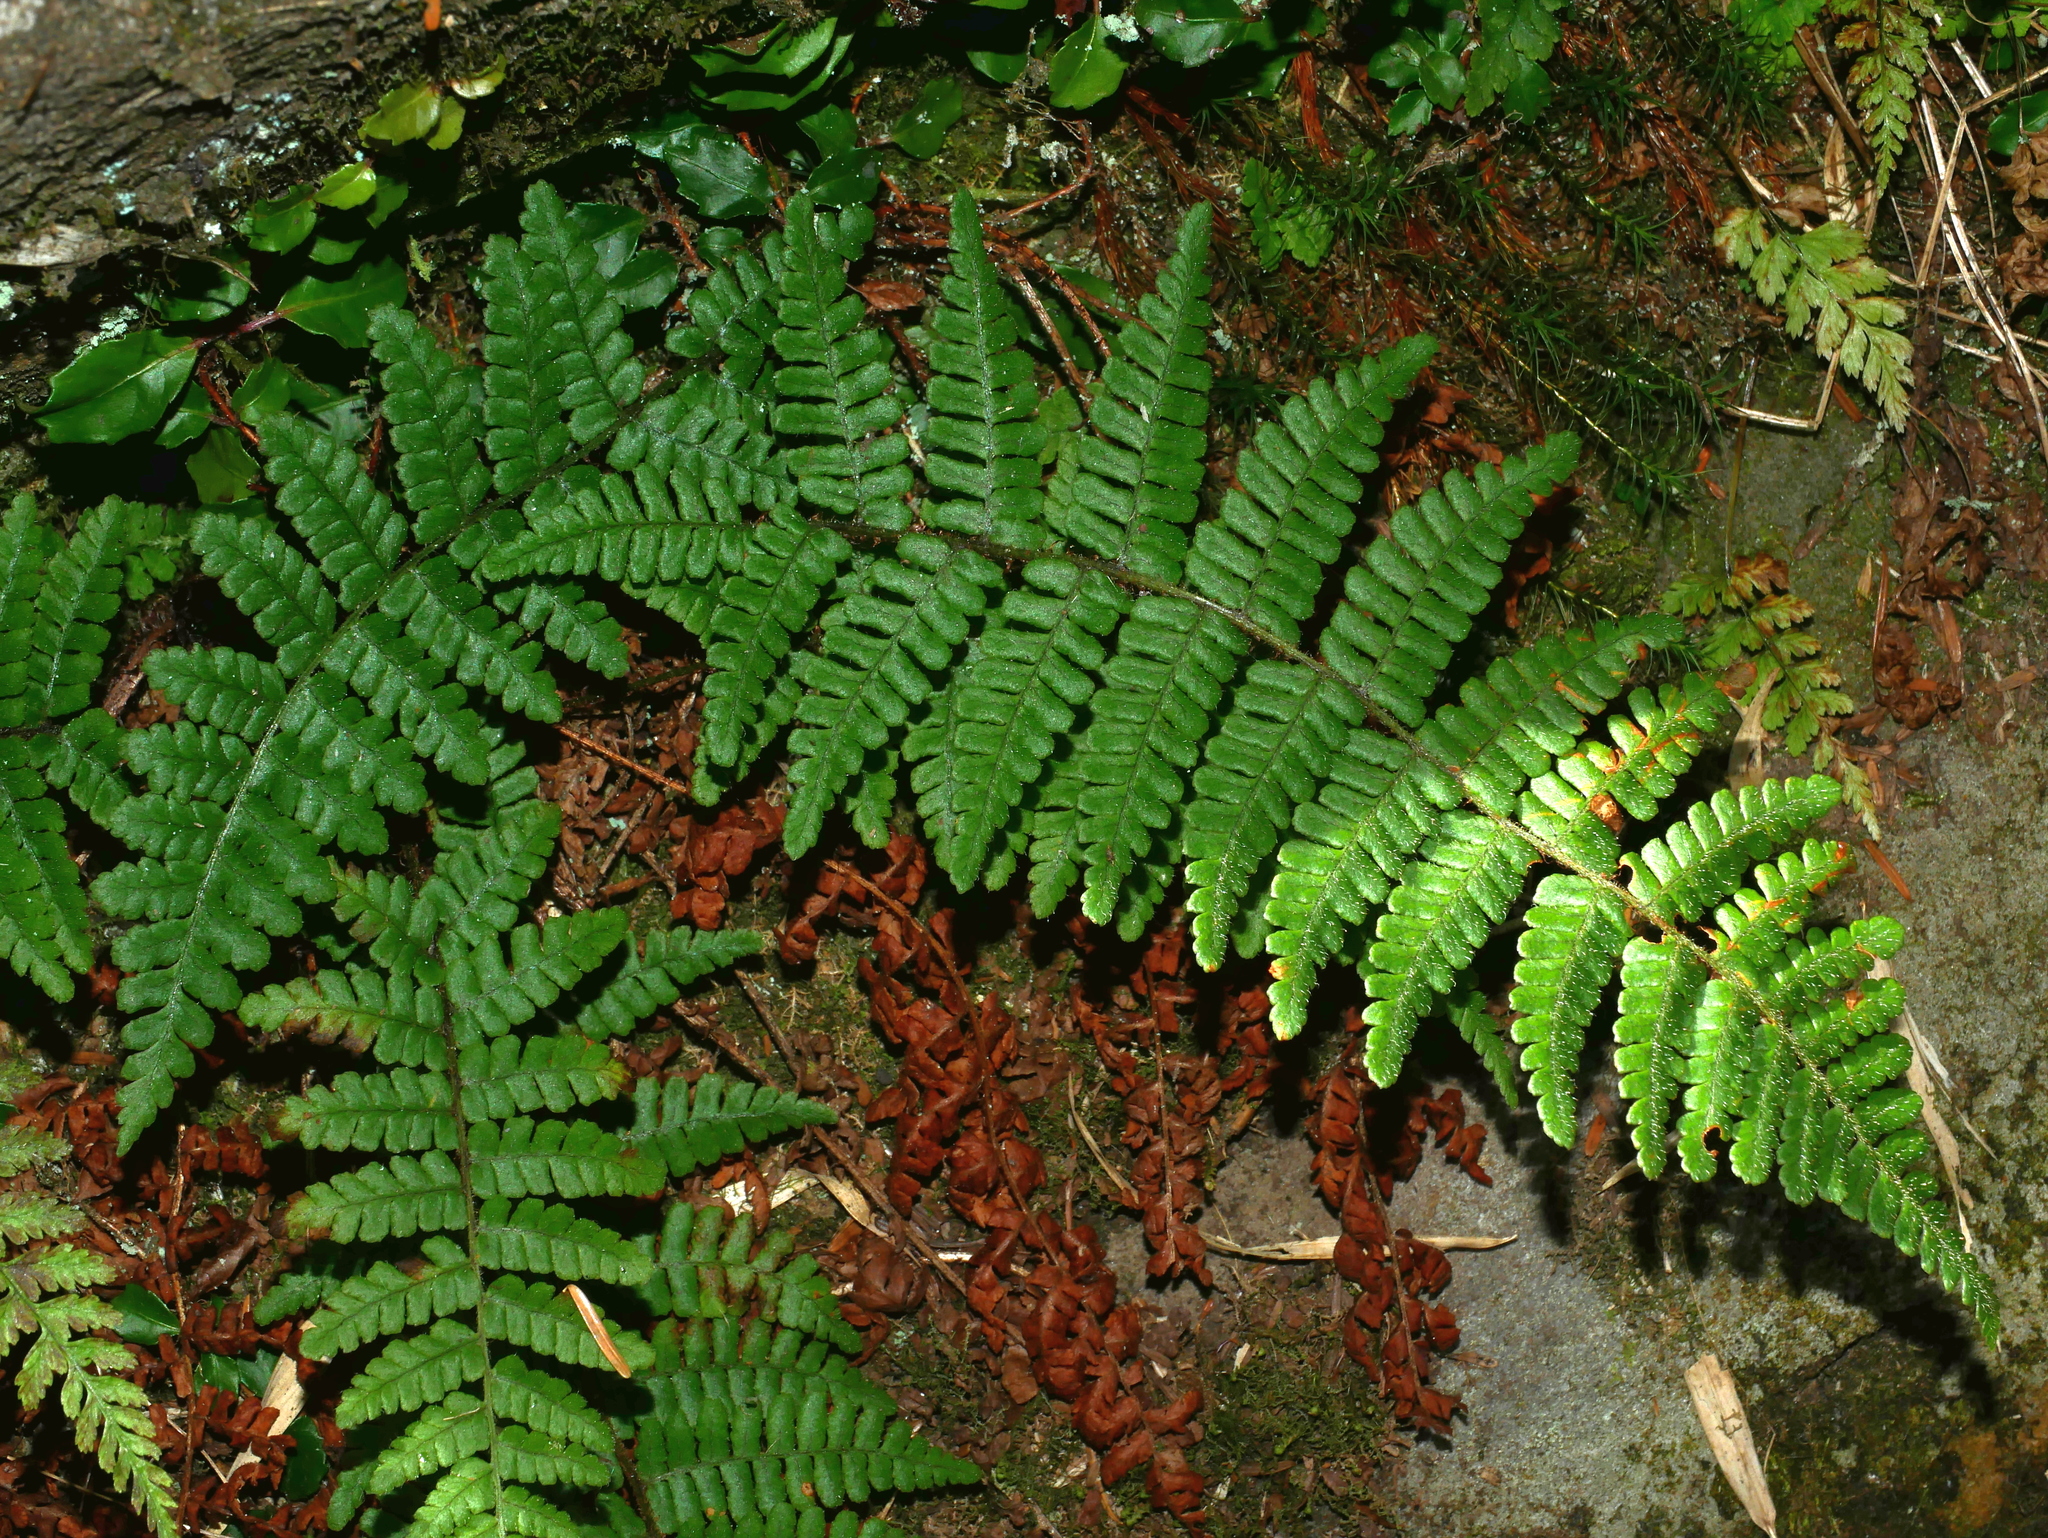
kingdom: Plantae
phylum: Tracheophyta
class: Polypodiopsida
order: Polypodiales
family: Dryopteridaceae
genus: Dryopteris
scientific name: Dryopteris transmorrisonensis
